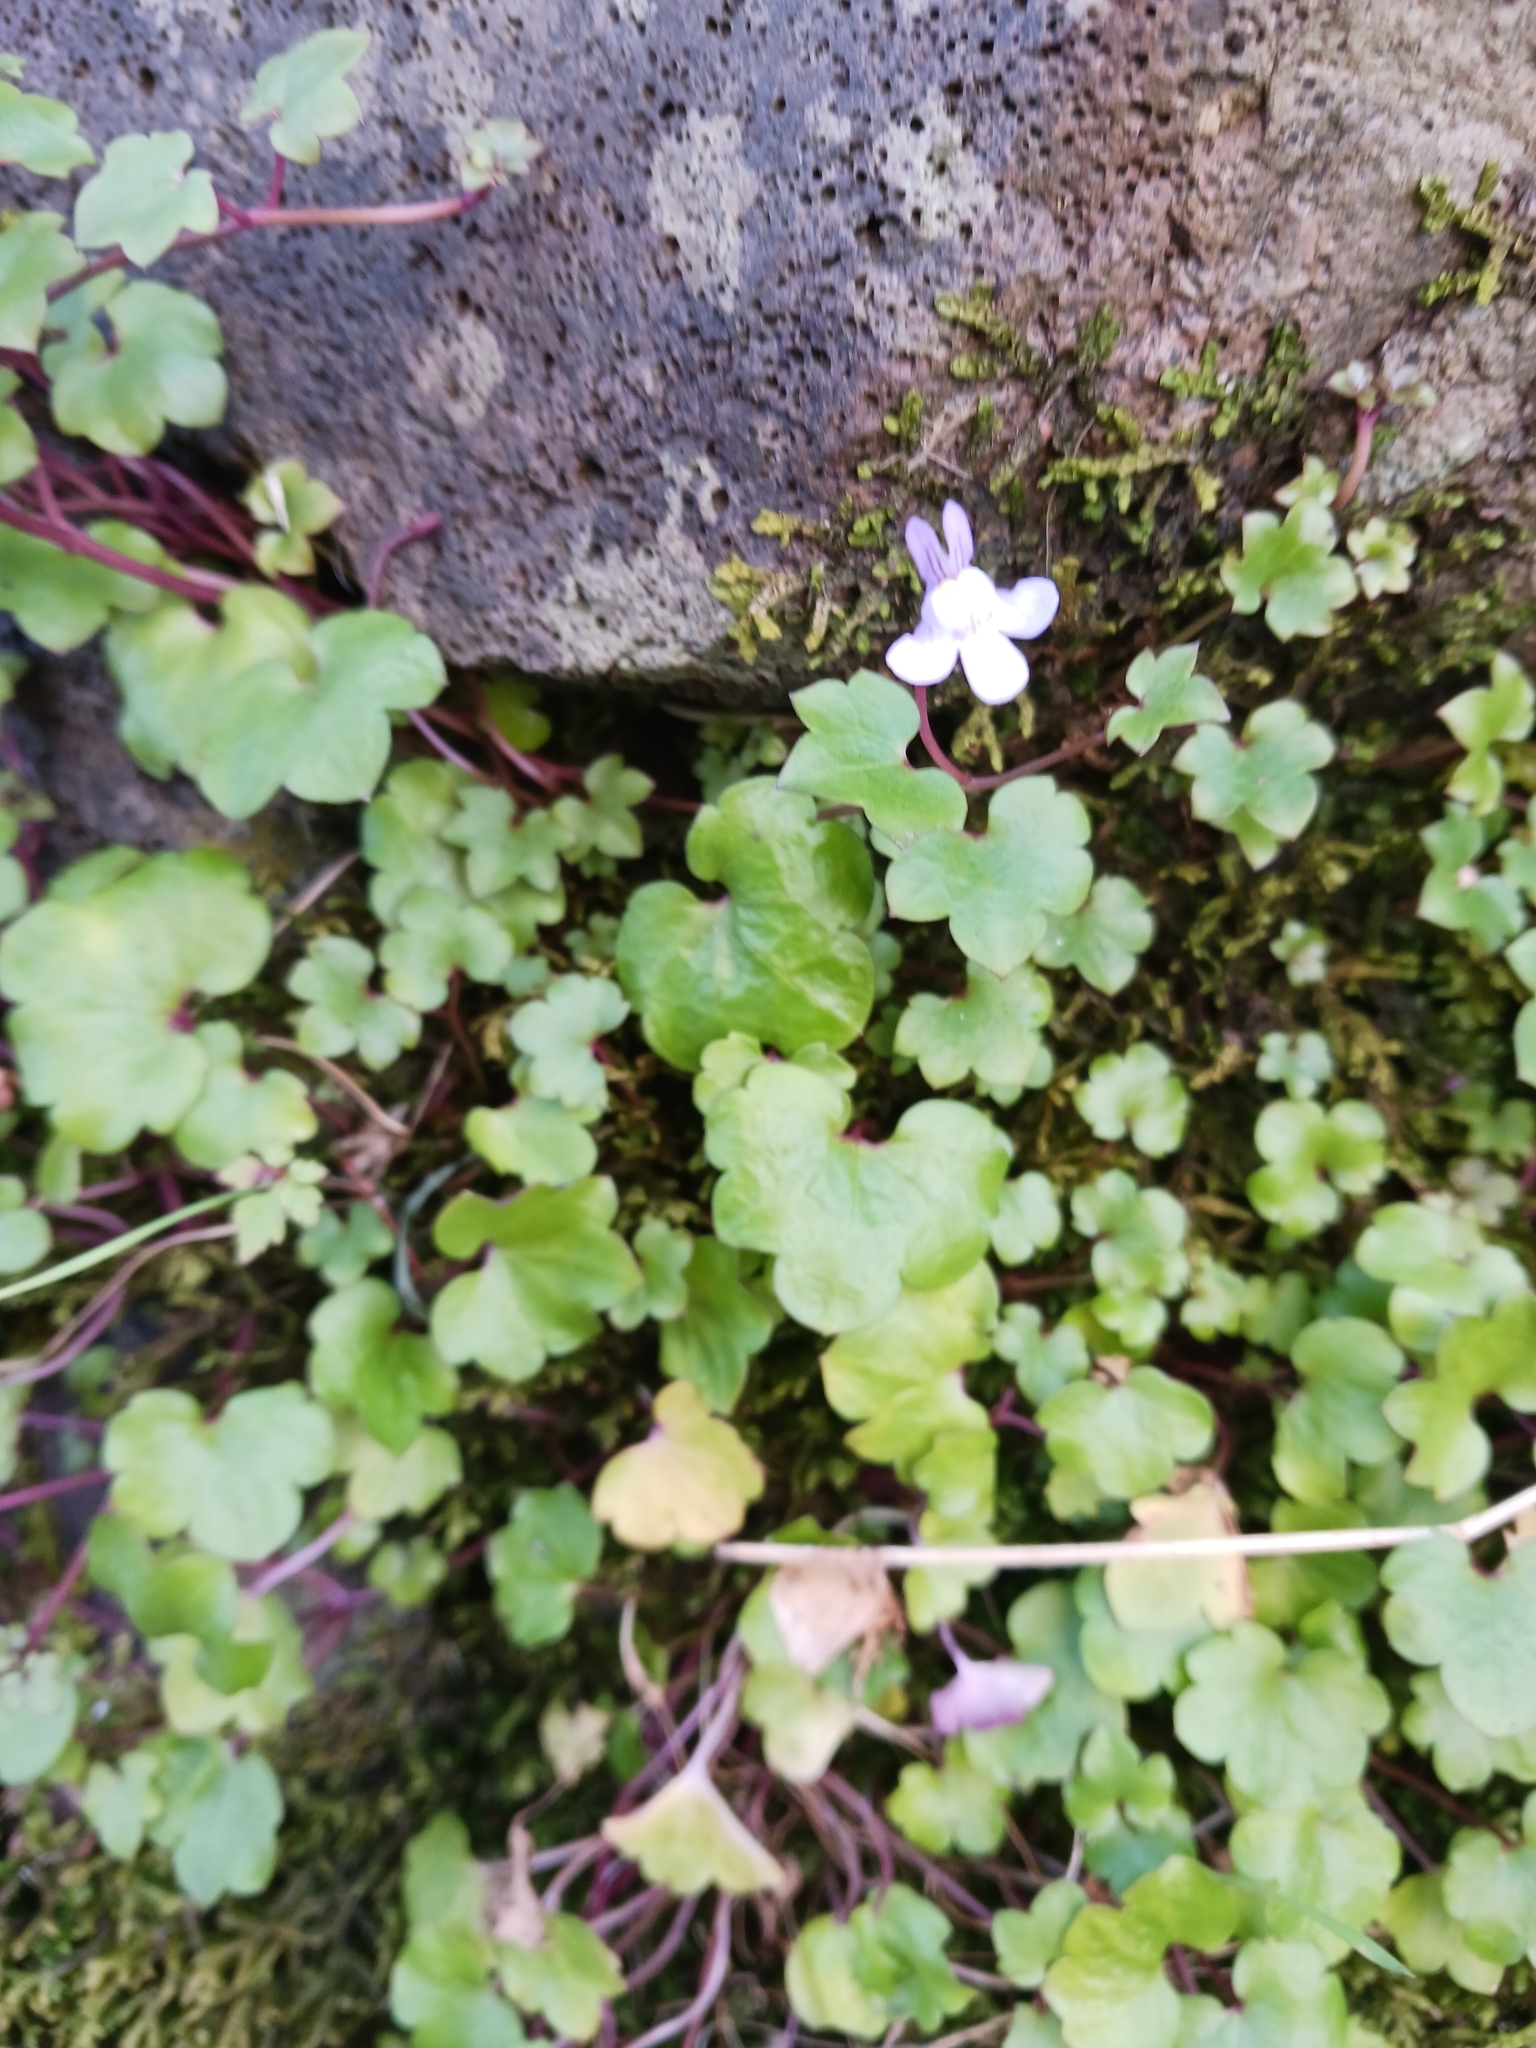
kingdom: Plantae
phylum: Tracheophyta
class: Magnoliopsida
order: Lamiales
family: Plantaginaceae
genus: Cymbalaria
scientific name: Cymbalaria muralis
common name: Ivy-leaved toadflax
